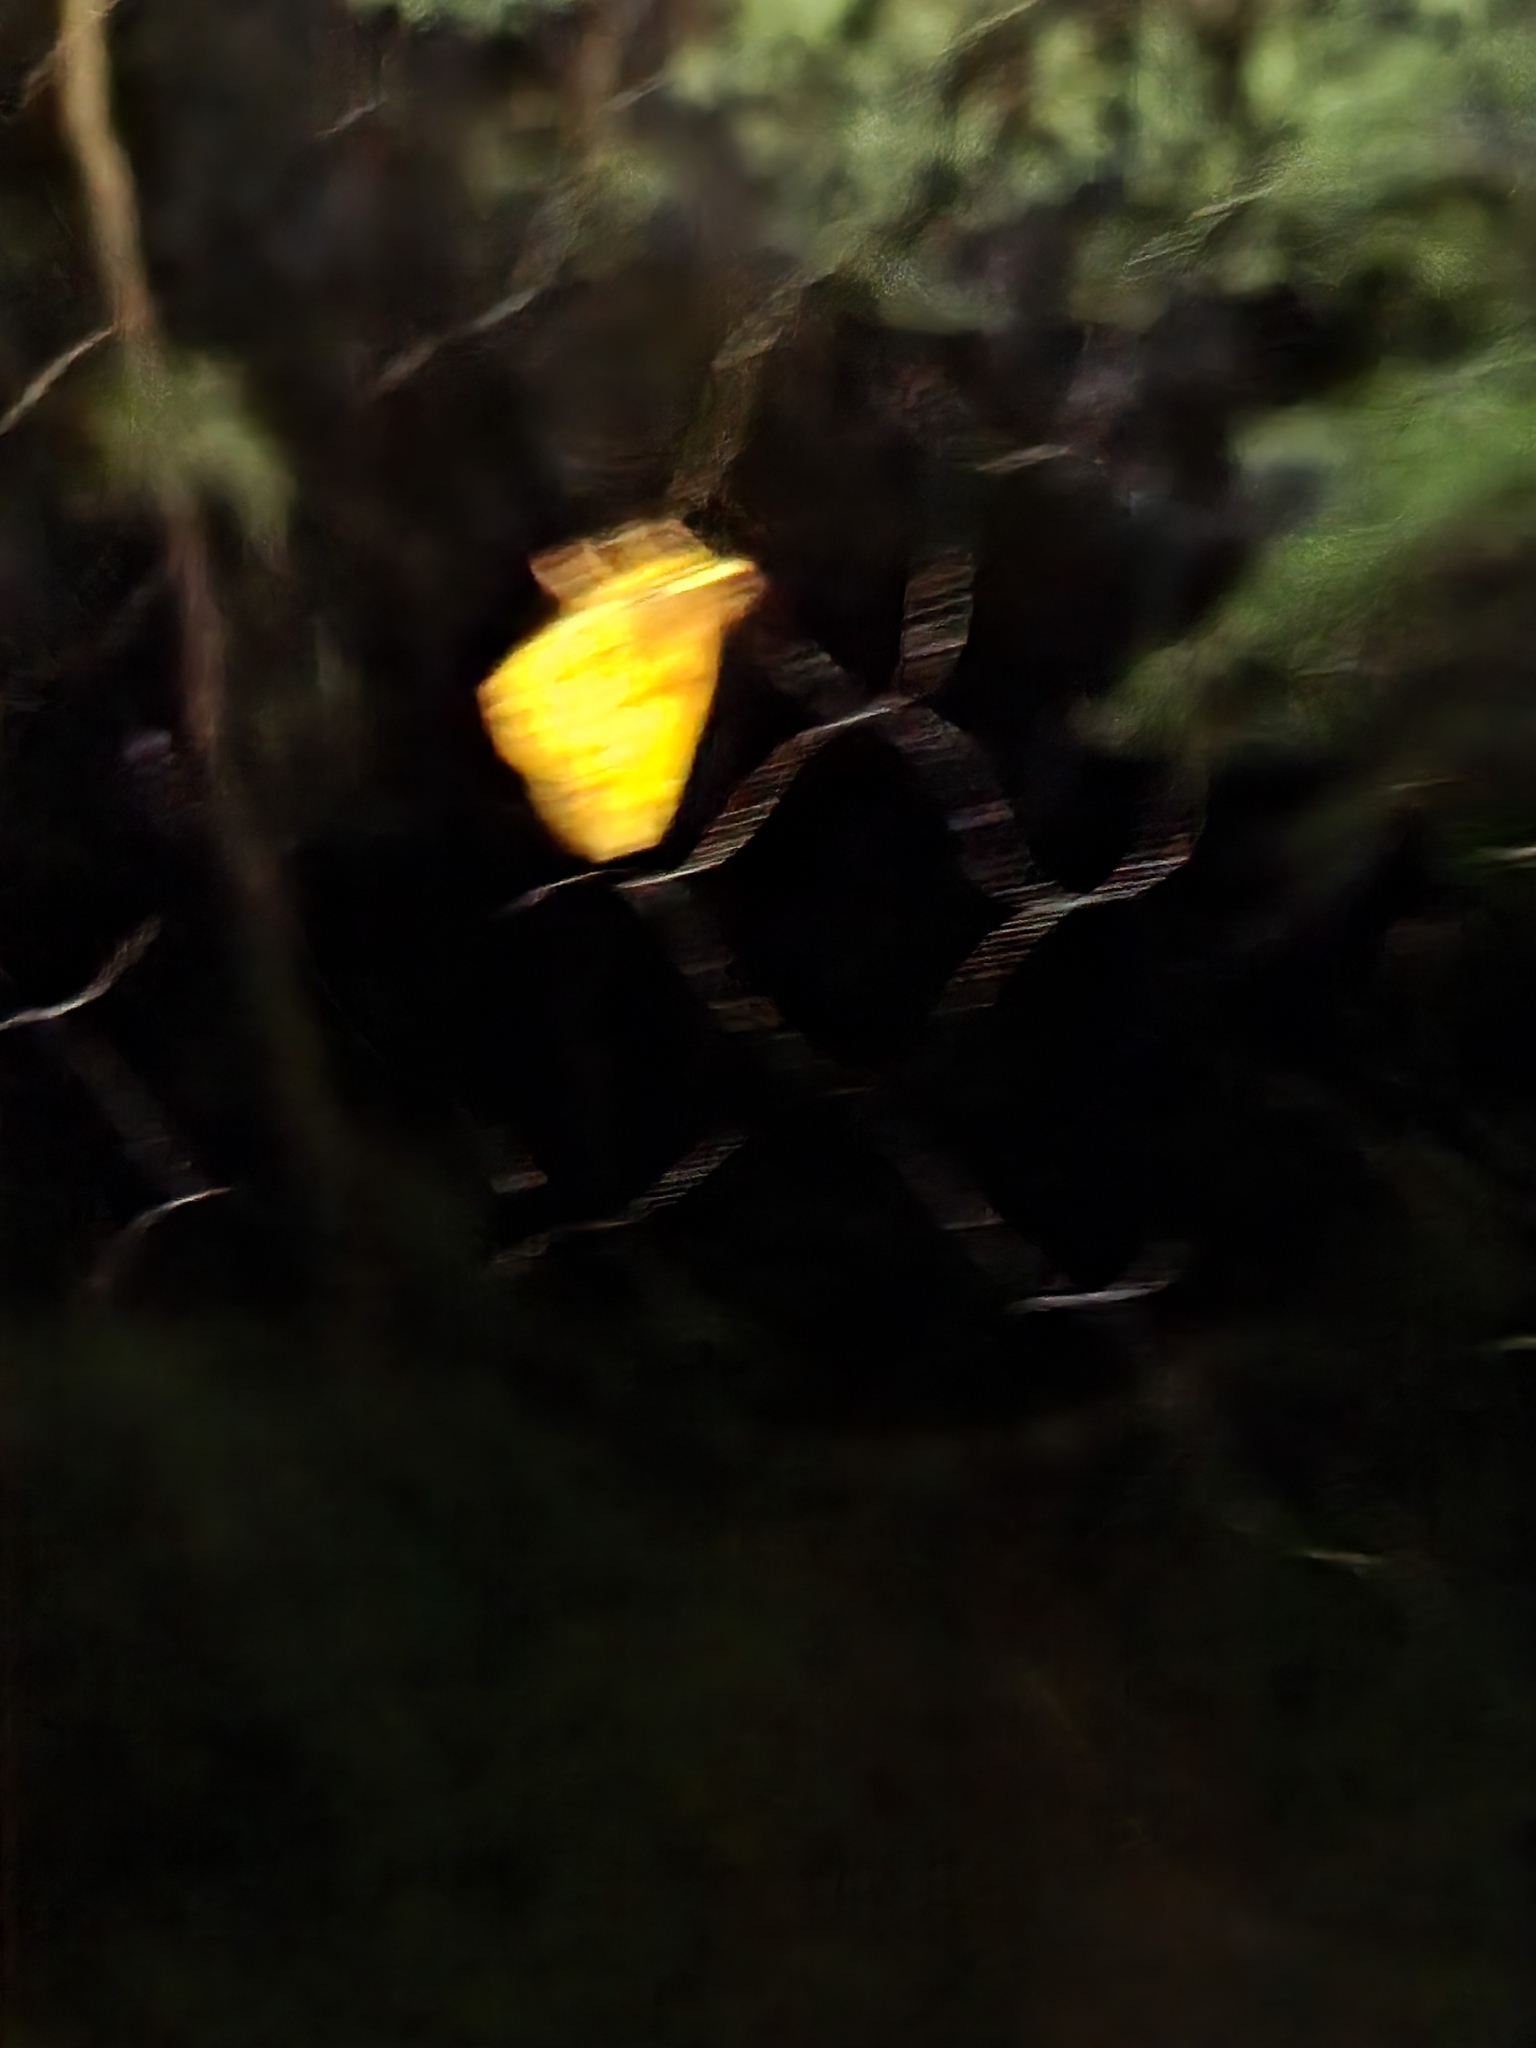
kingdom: Animalia
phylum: Arthropoda
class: Insecta
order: Lepidoptera
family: Hesperiidae
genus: Lon
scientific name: Lon zabulon
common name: Zabulon skipper
